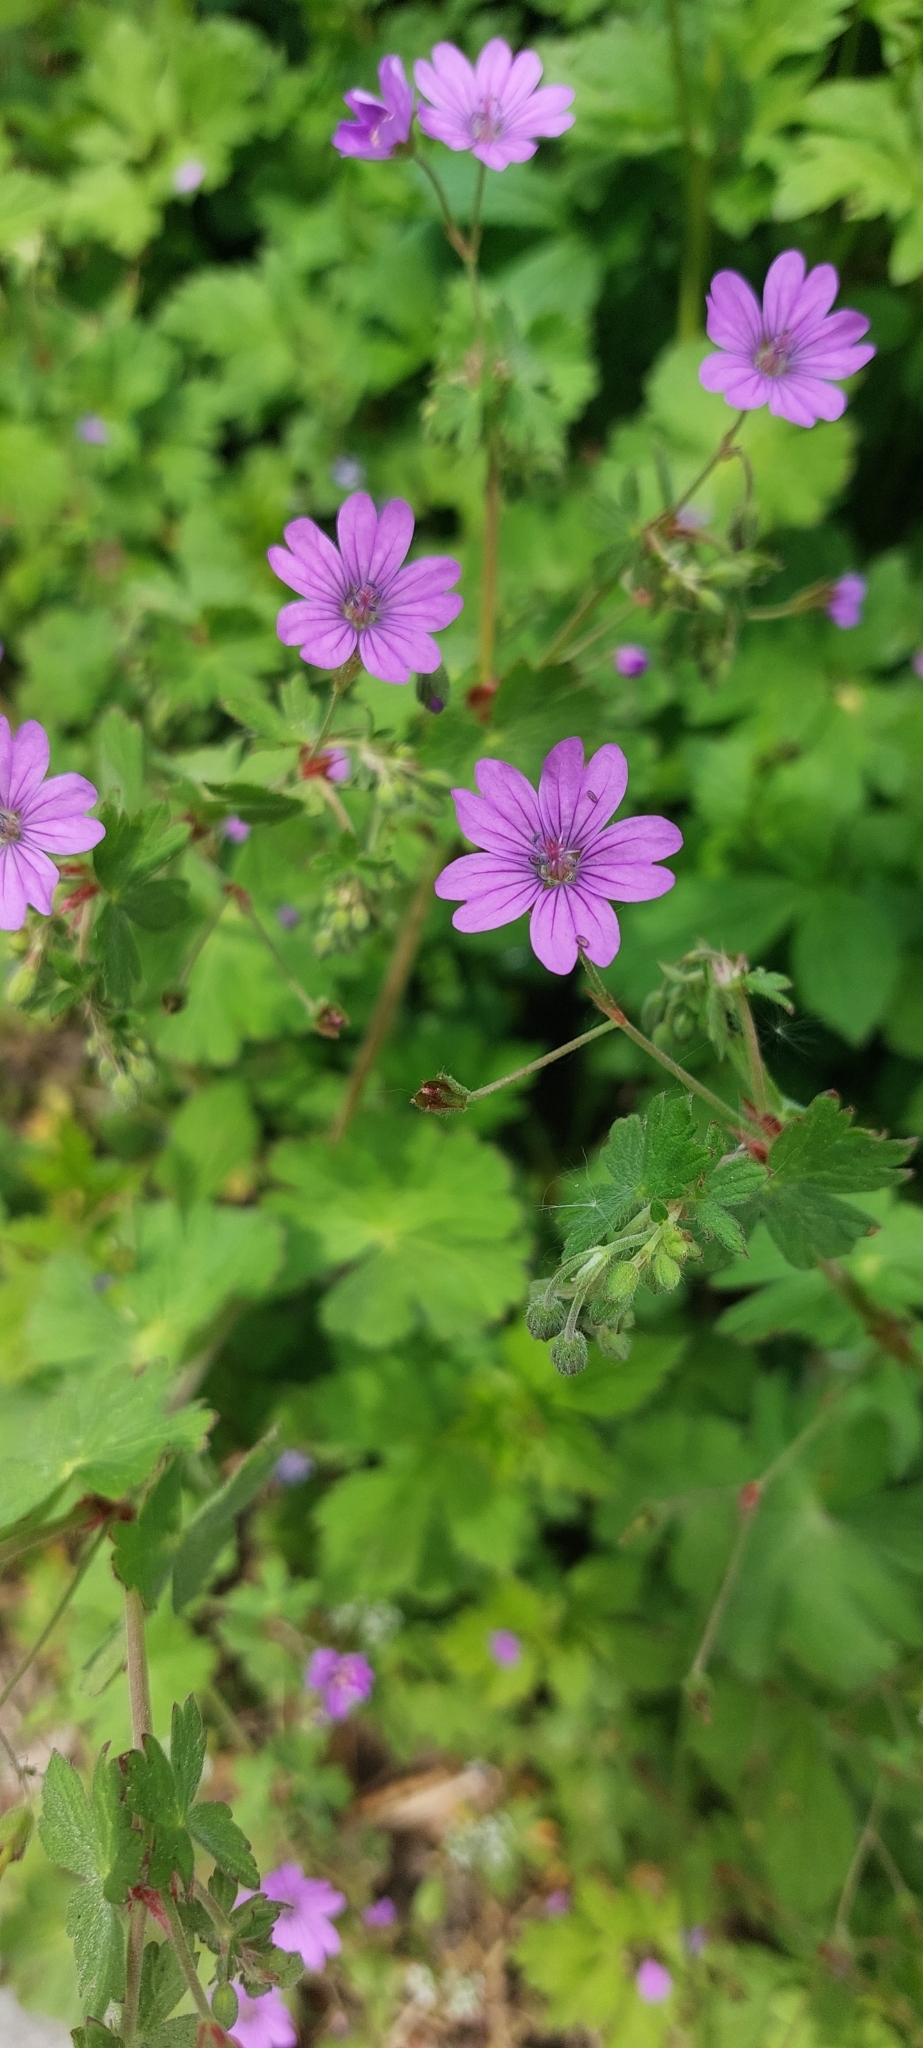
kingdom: Plantae
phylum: Tracheophyta
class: Magnoliopsida
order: Geraniales
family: Geraniaceae
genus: Geranium
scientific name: Geranium pyrenaicum
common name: Hedgerow crane's-bill
